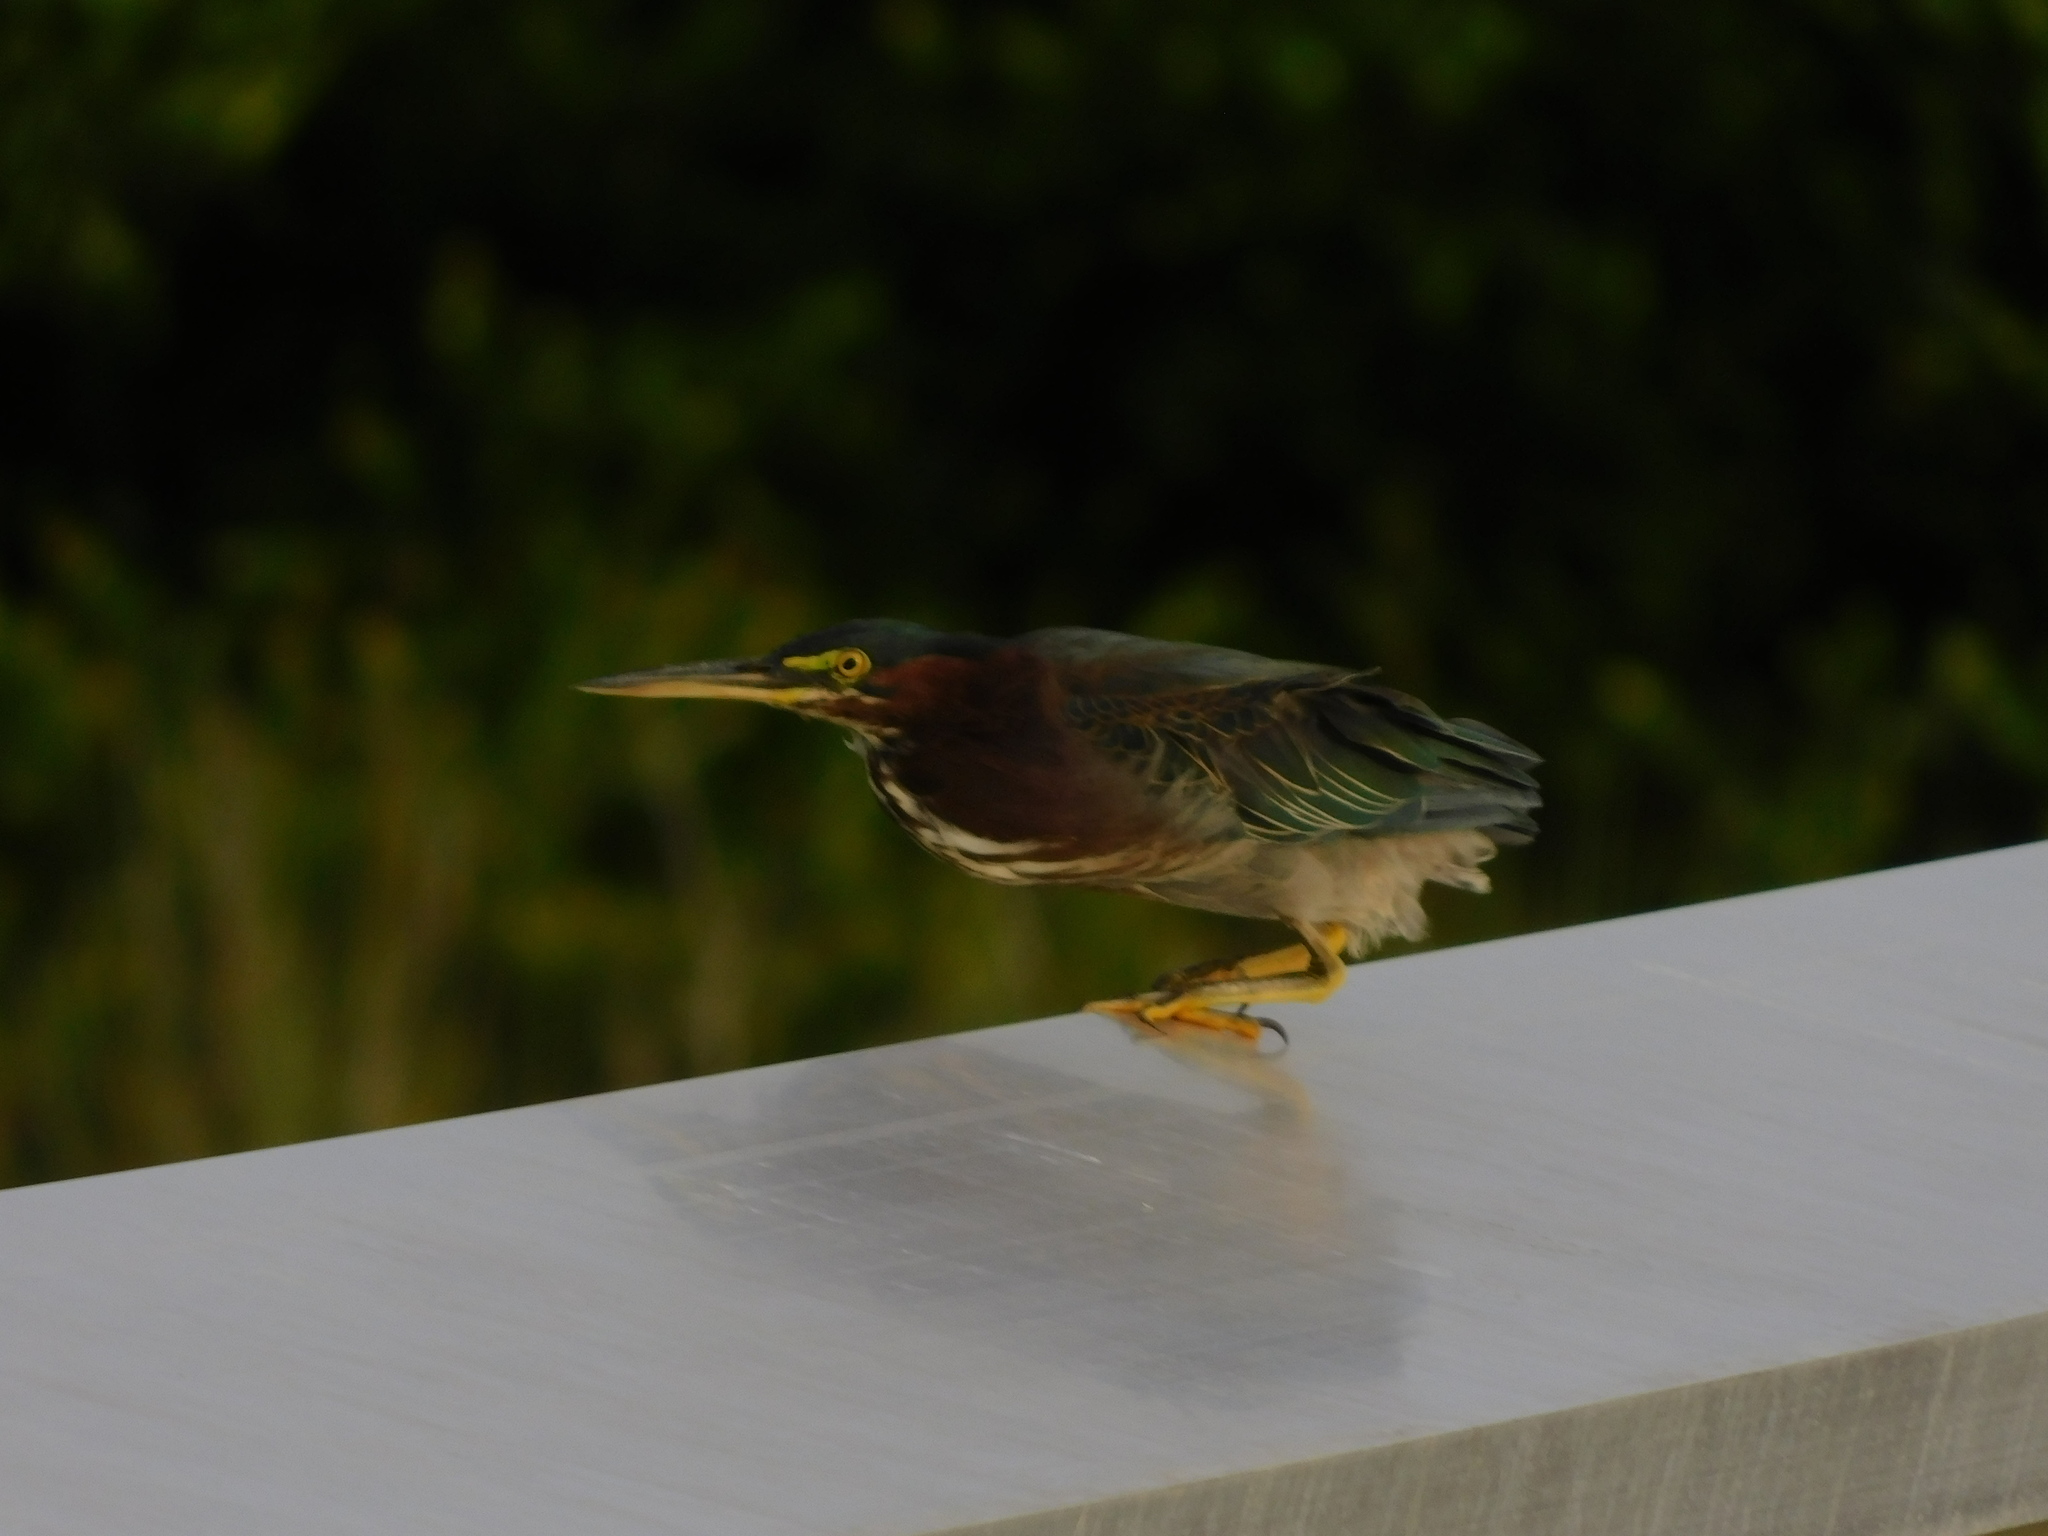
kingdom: Animalia
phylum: Chordata
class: Aves
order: Pelecaniformes
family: Ardeidae
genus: Butorides
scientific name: Butorides virescens
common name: Green heron
